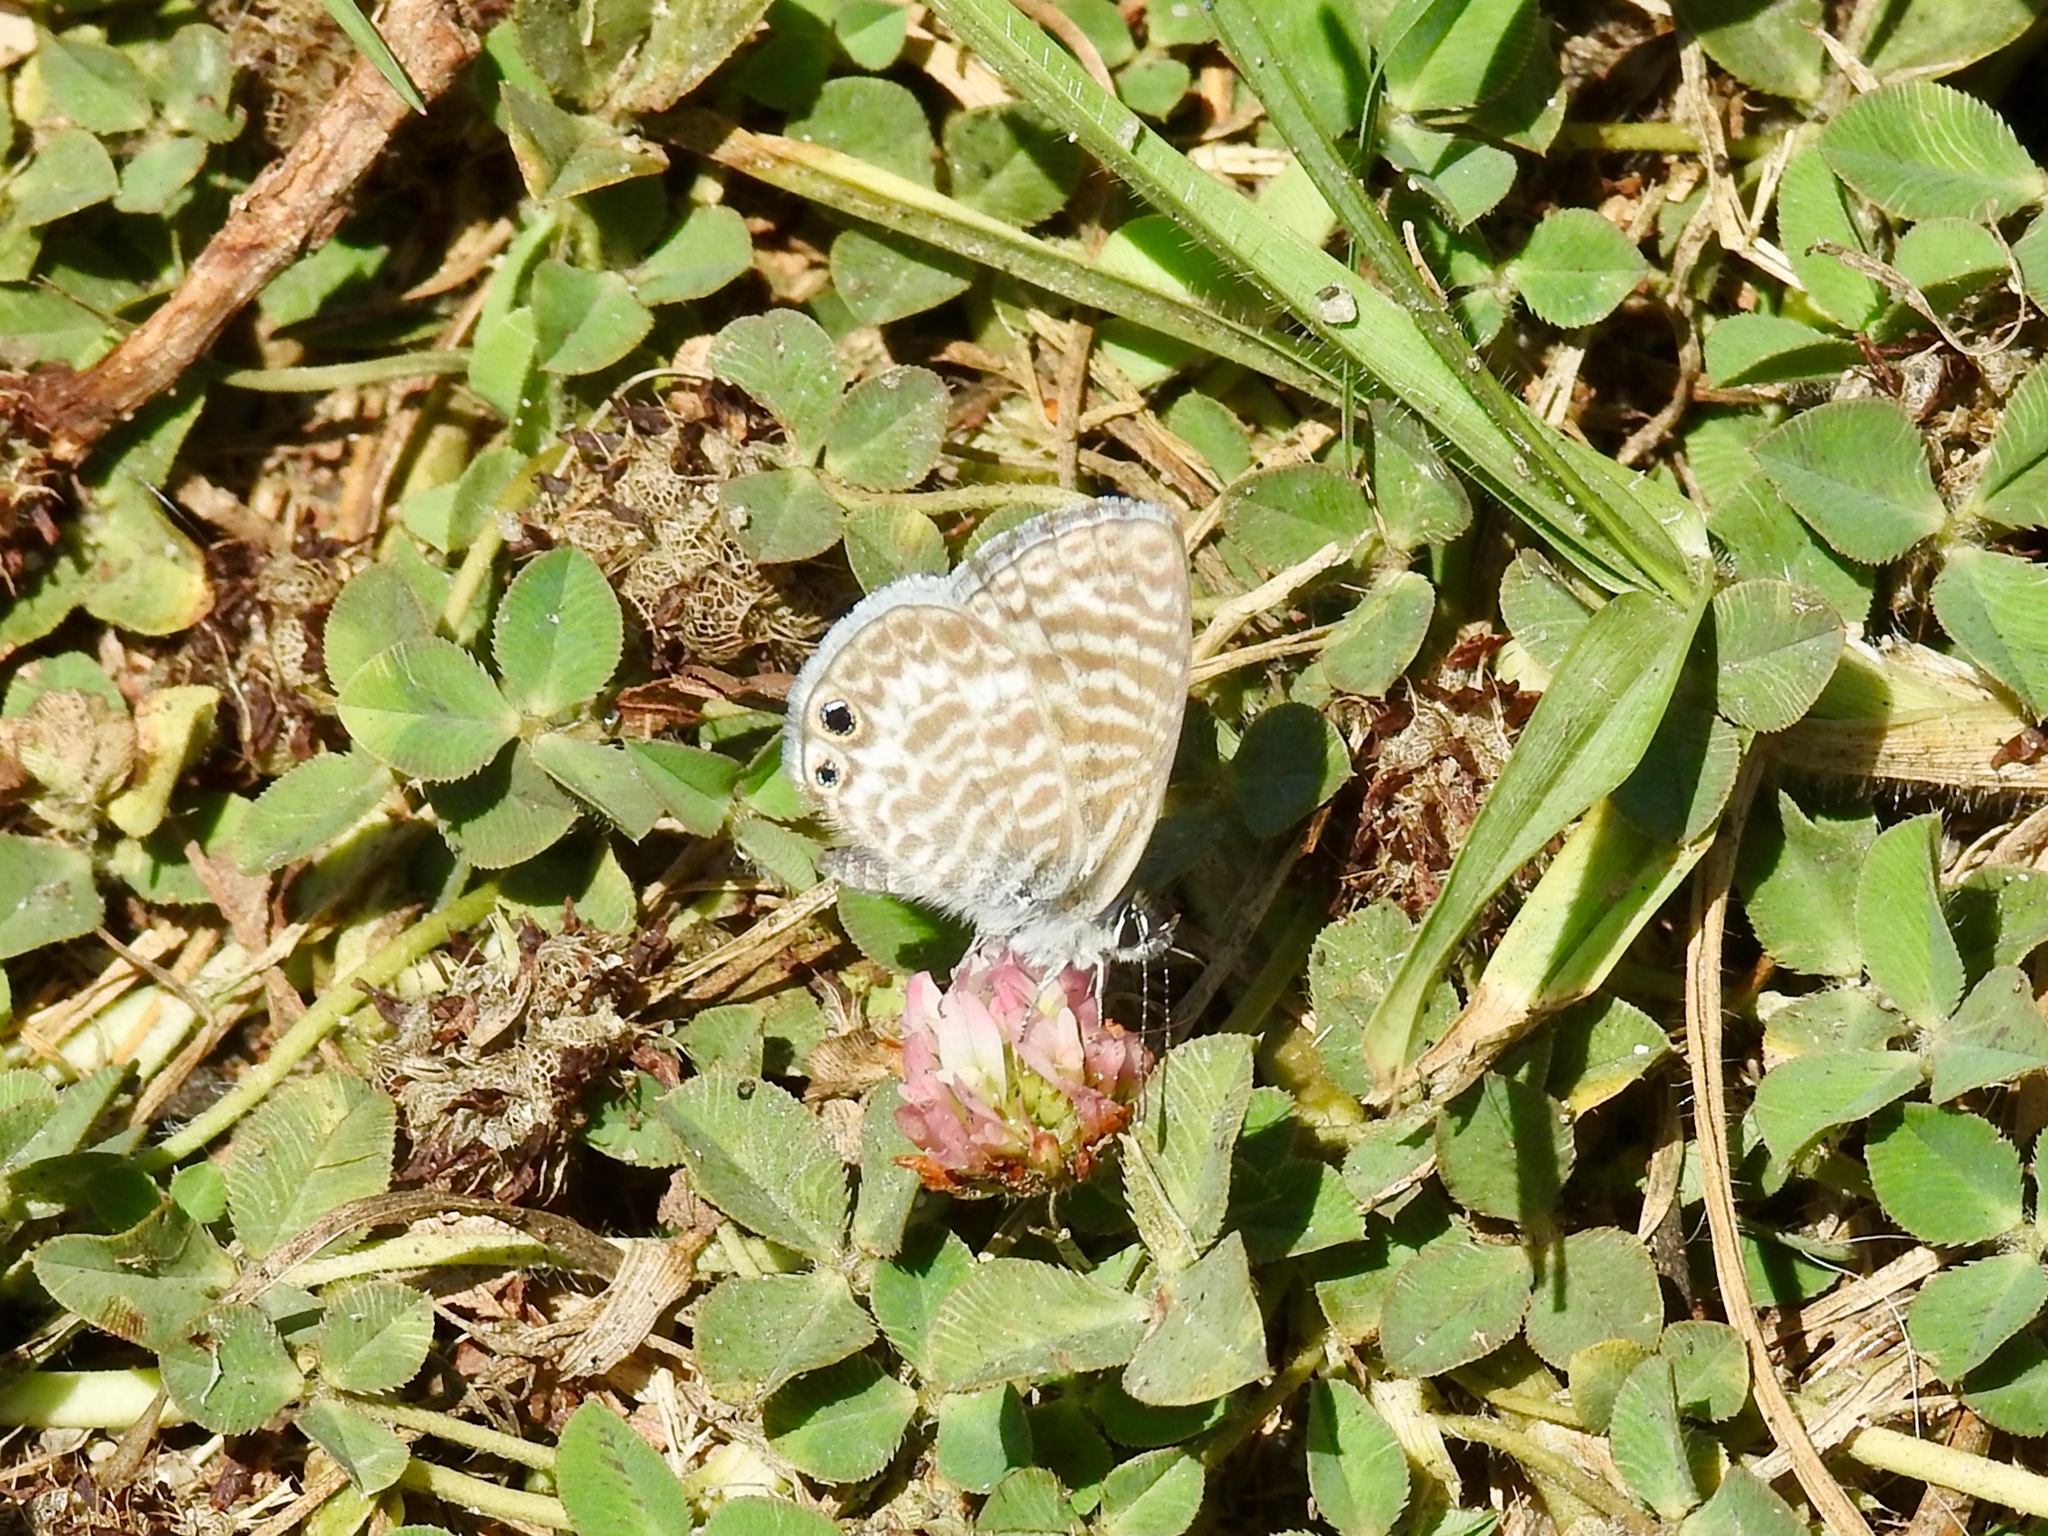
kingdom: Animalia
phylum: Arthropoda
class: Insecta
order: Lepidoptera
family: Lycaenidae
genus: Leptotes
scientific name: Leptotes marina
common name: Marine blue
